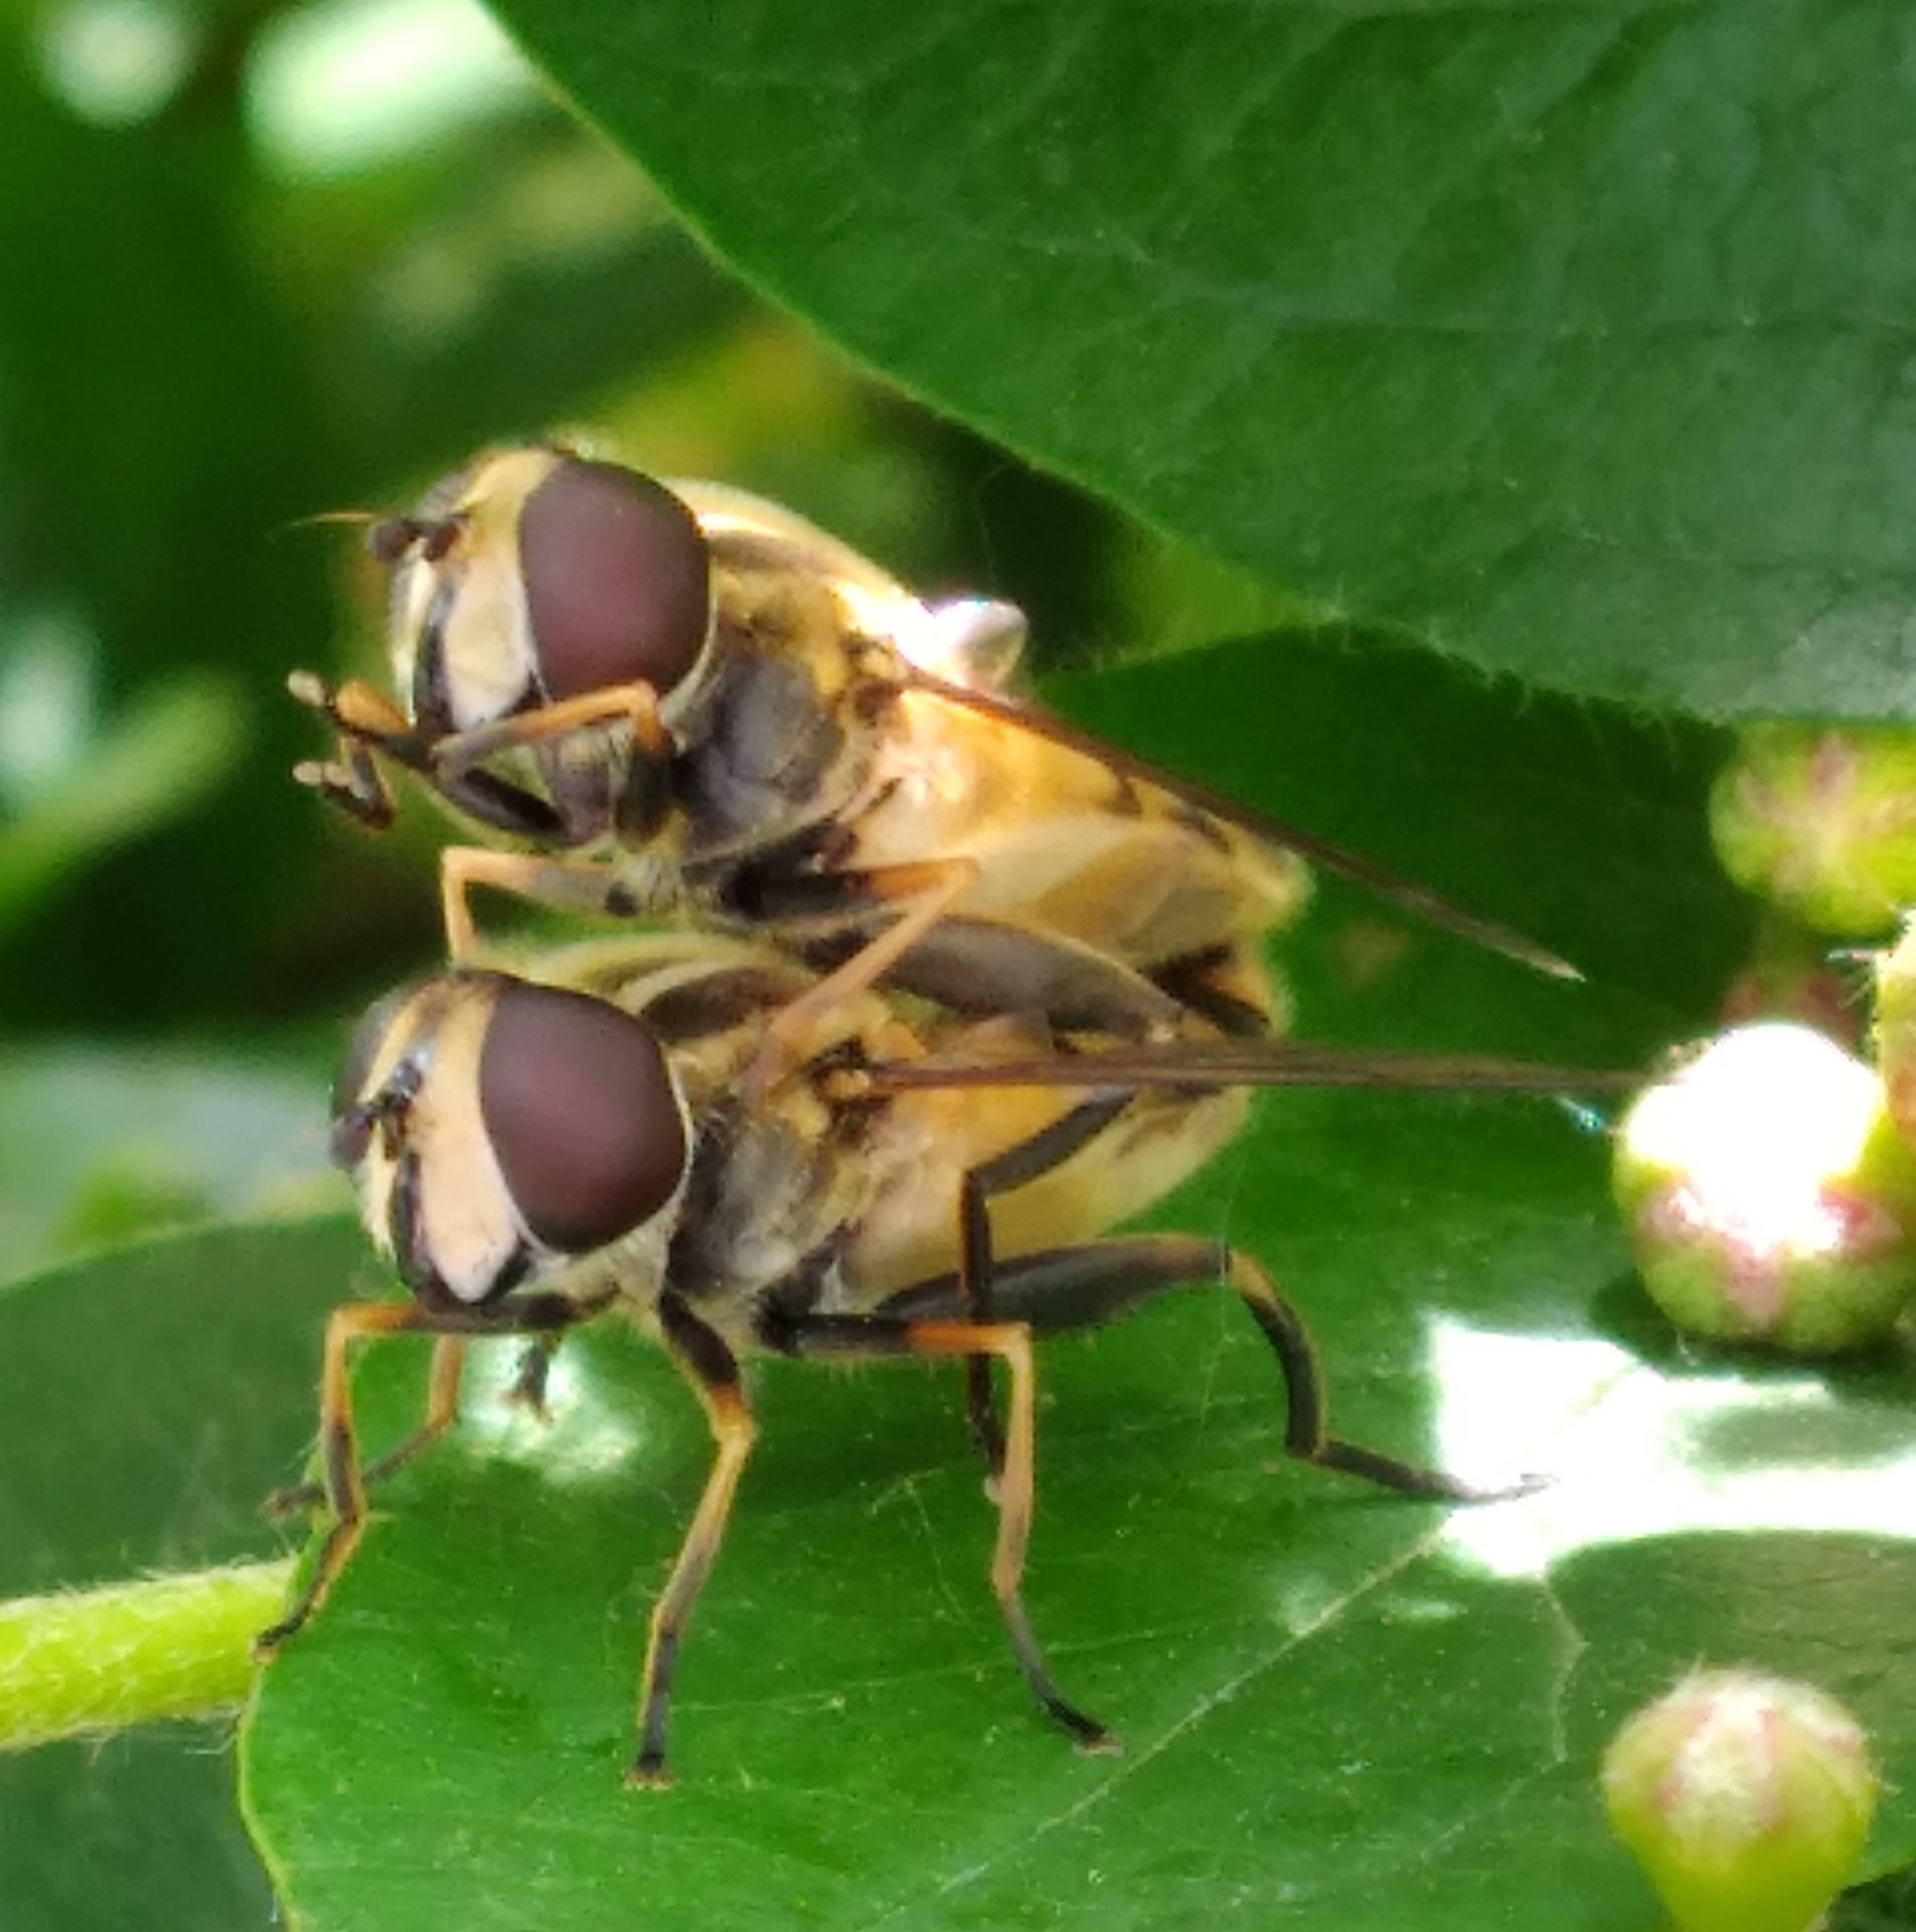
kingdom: Animalia
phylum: Arthropoda
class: Insecta
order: Diptera
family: Syrphidae
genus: Helophilus
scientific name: Helophilus
